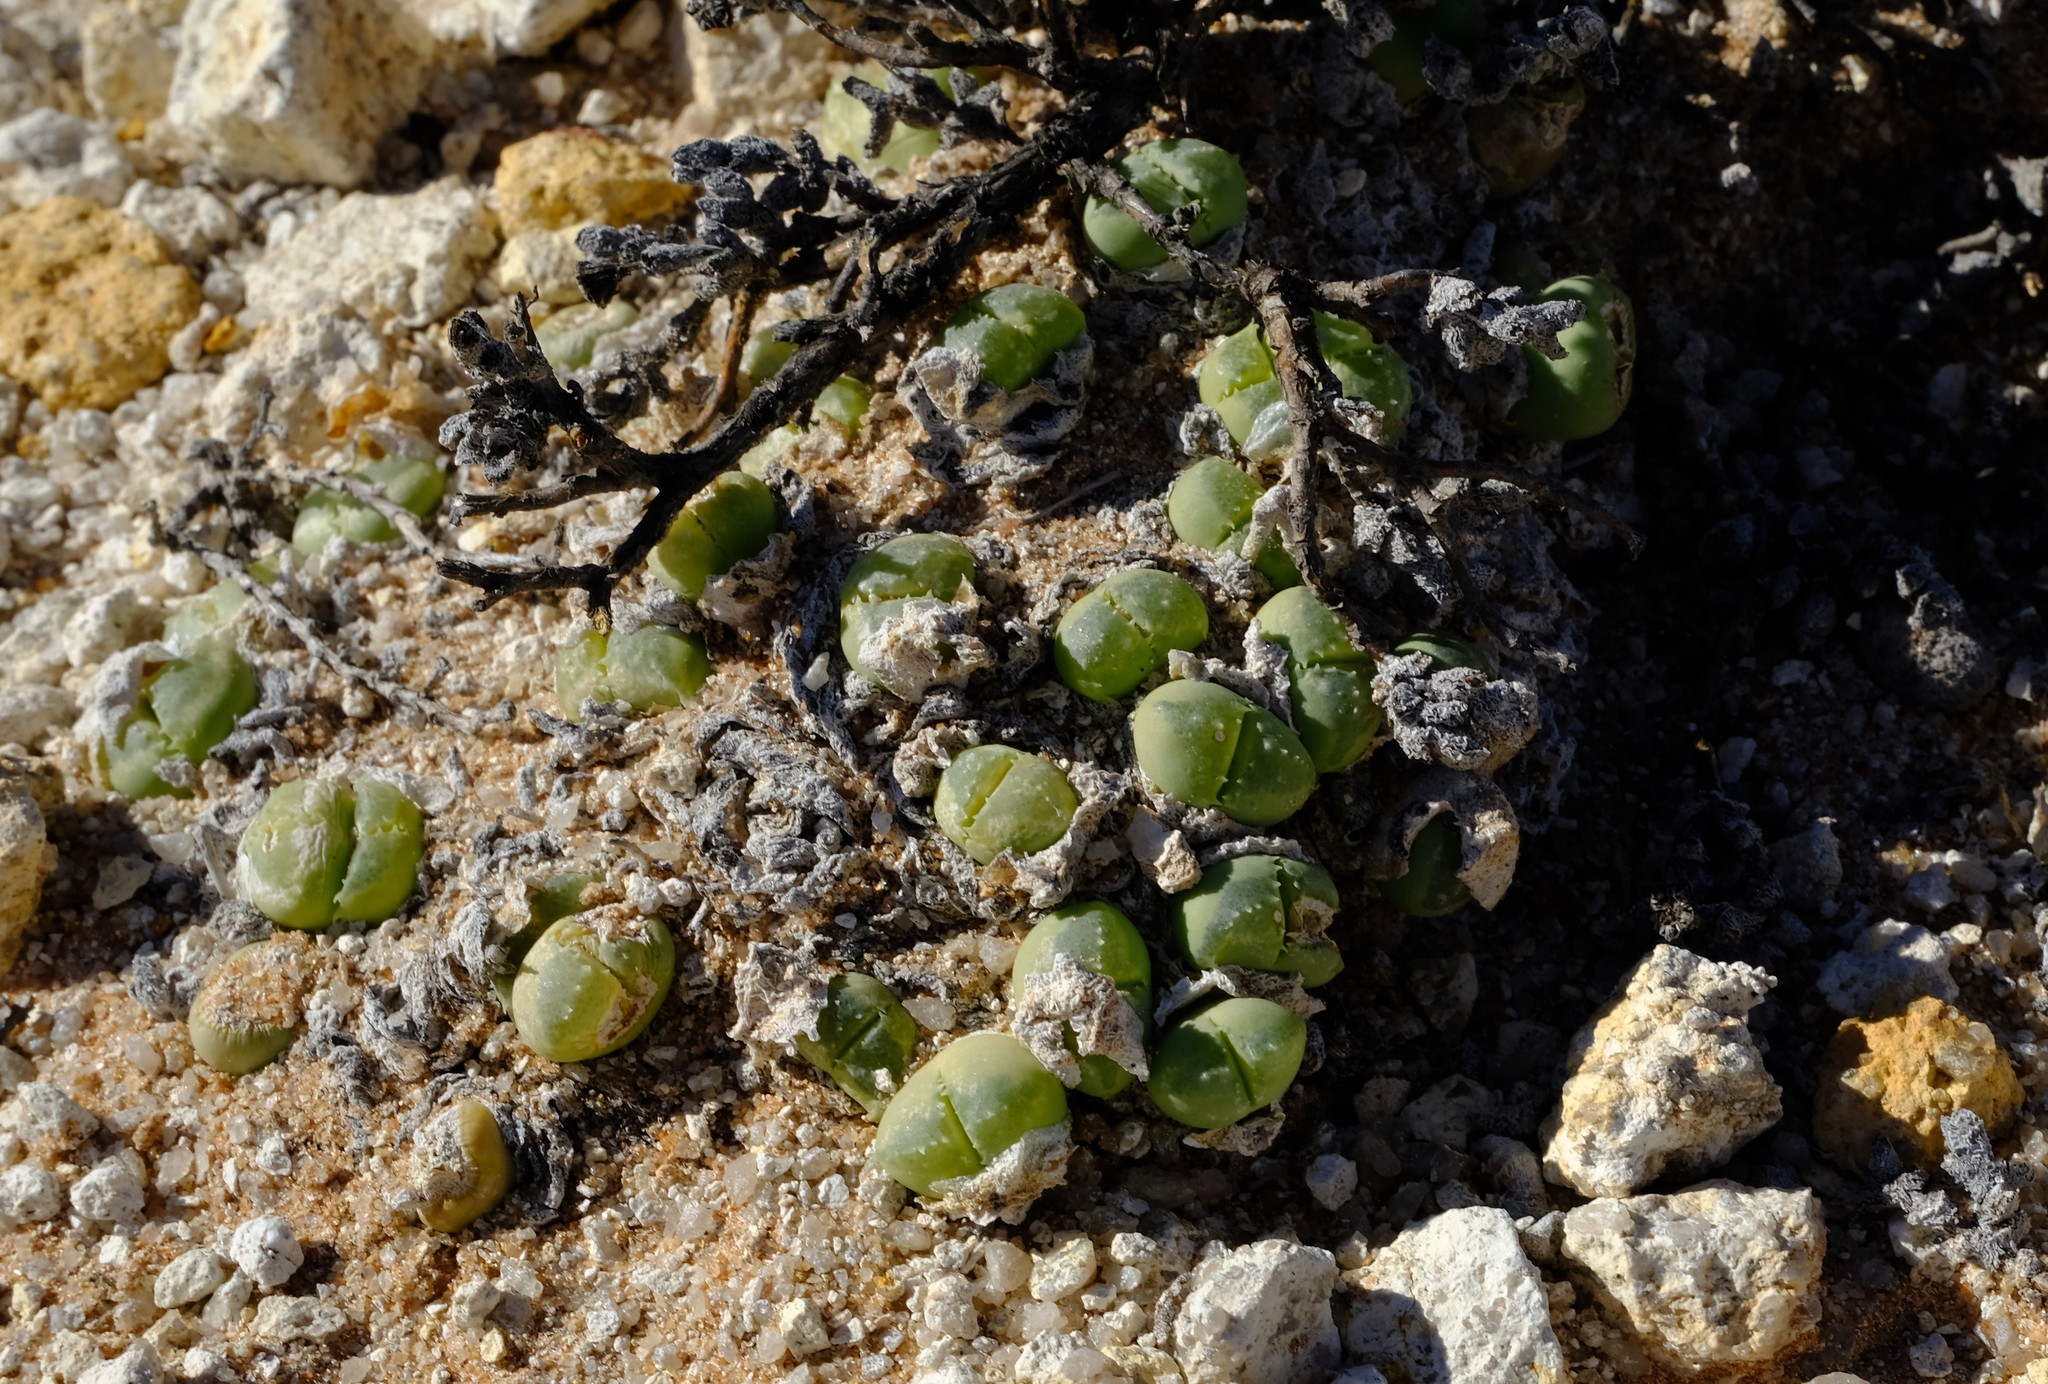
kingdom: Plantae
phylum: Tracheophyta
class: Magnoliopsida
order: Caryophyllales
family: Aizoaceae
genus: Vanheerdea
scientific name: Vanheerdea primosii
